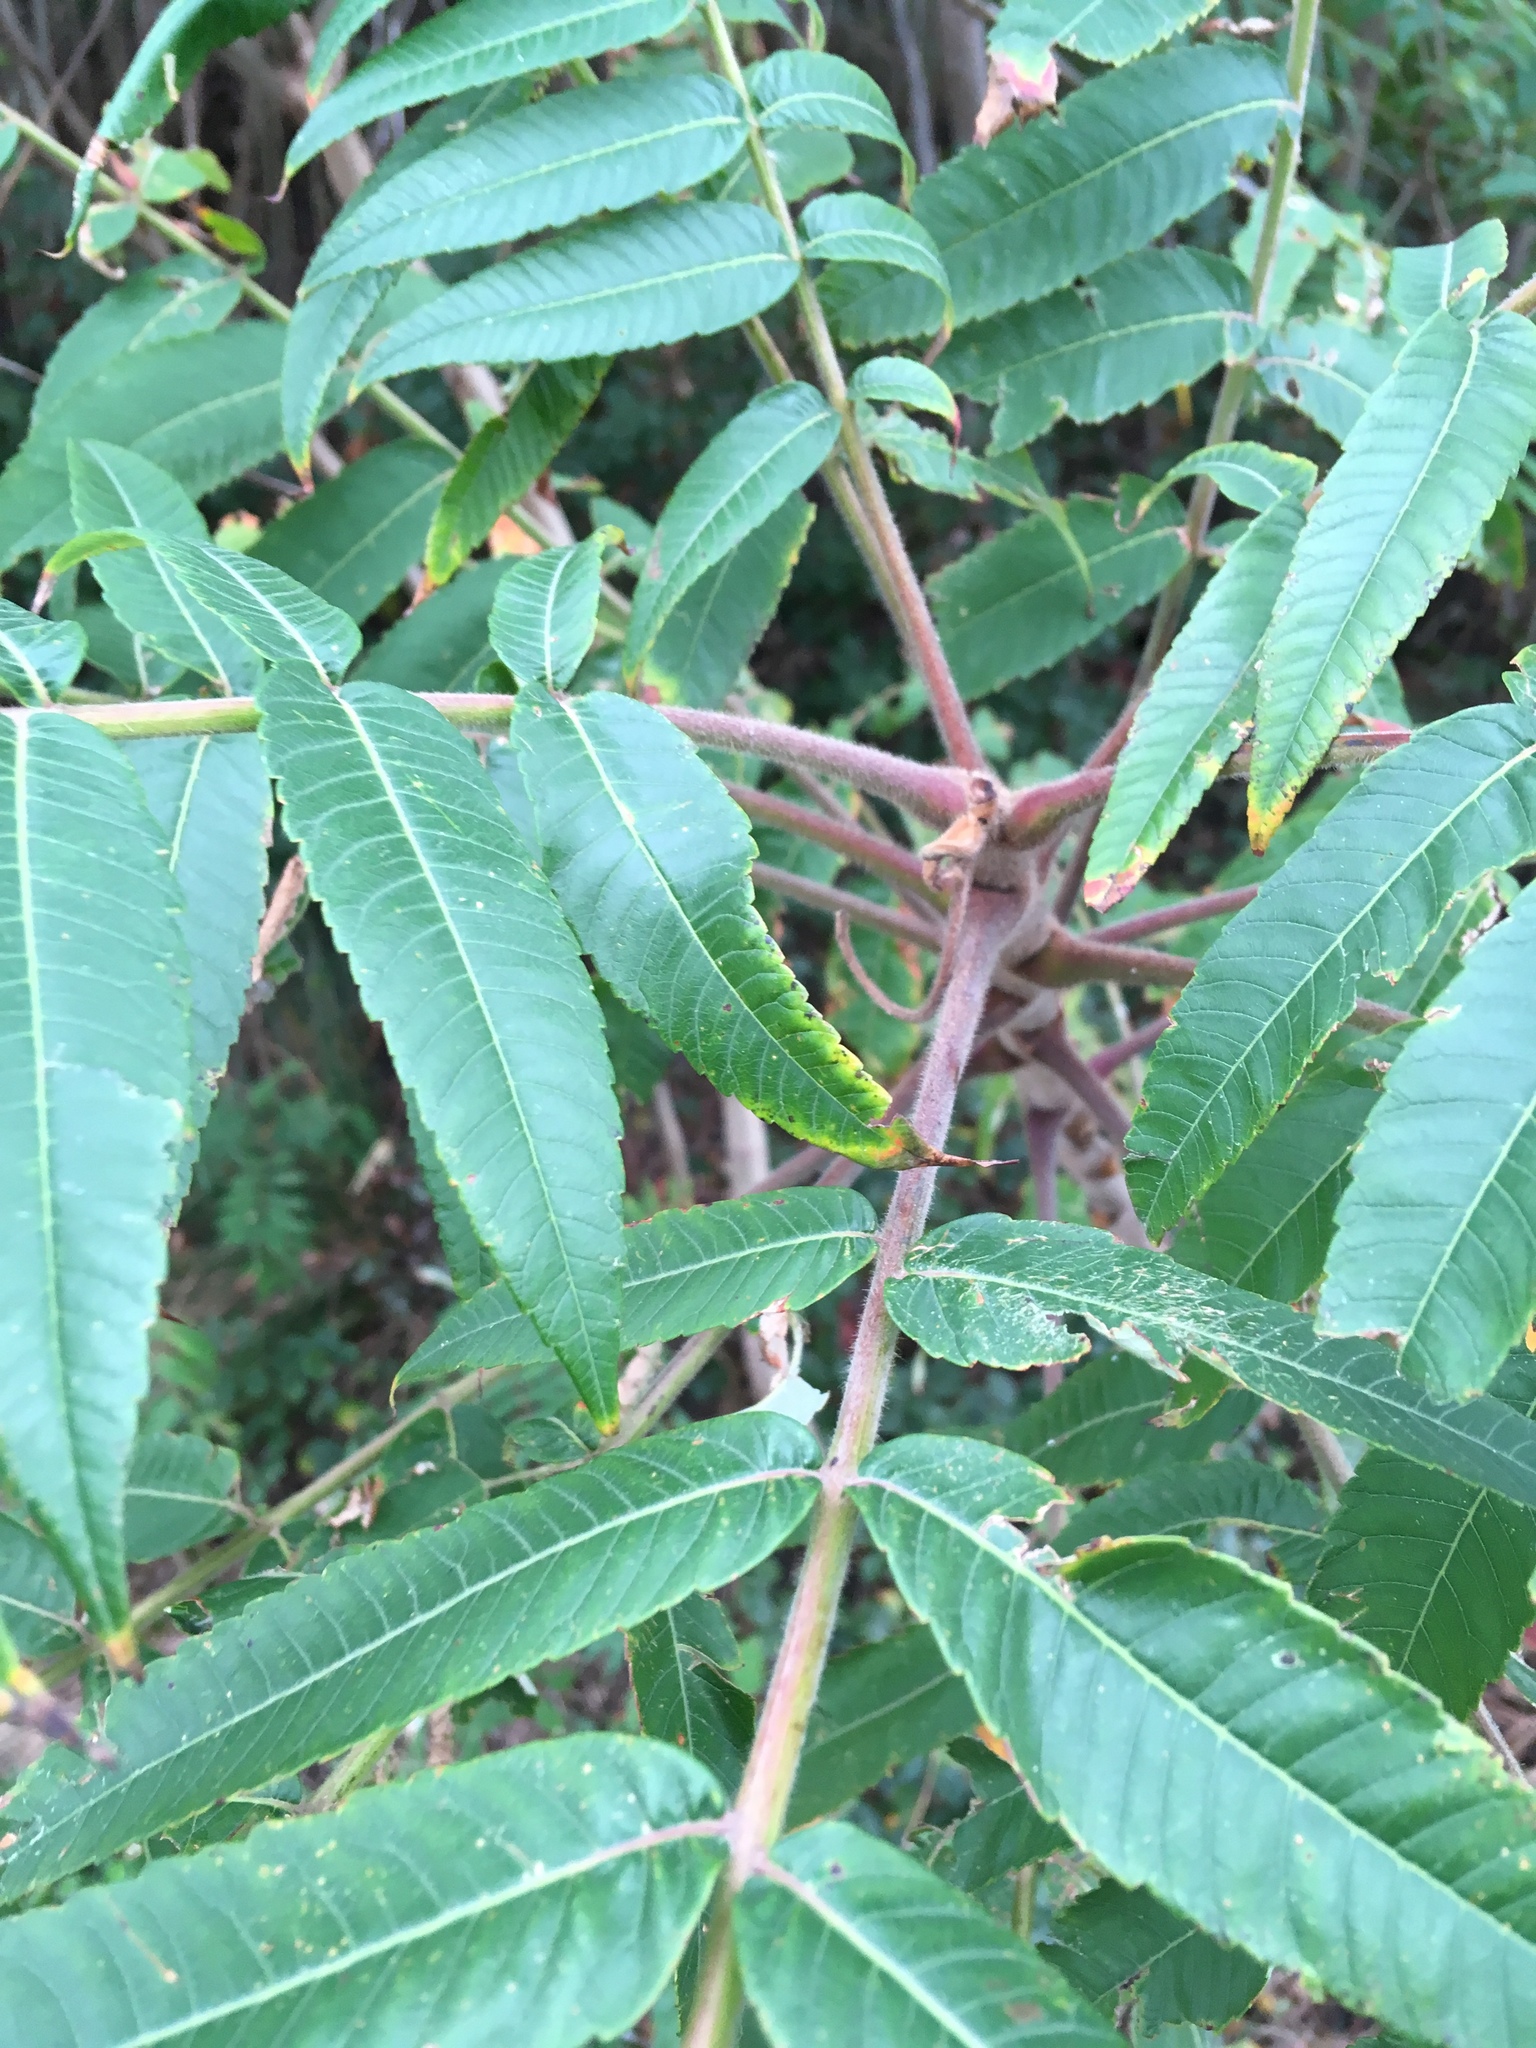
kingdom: Plantae
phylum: Tracheophyta
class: Magnoliopsida
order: Sapindales
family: Anacardiaceae
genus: Rhus
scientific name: Rhus typhina
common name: Staghorn sumac
